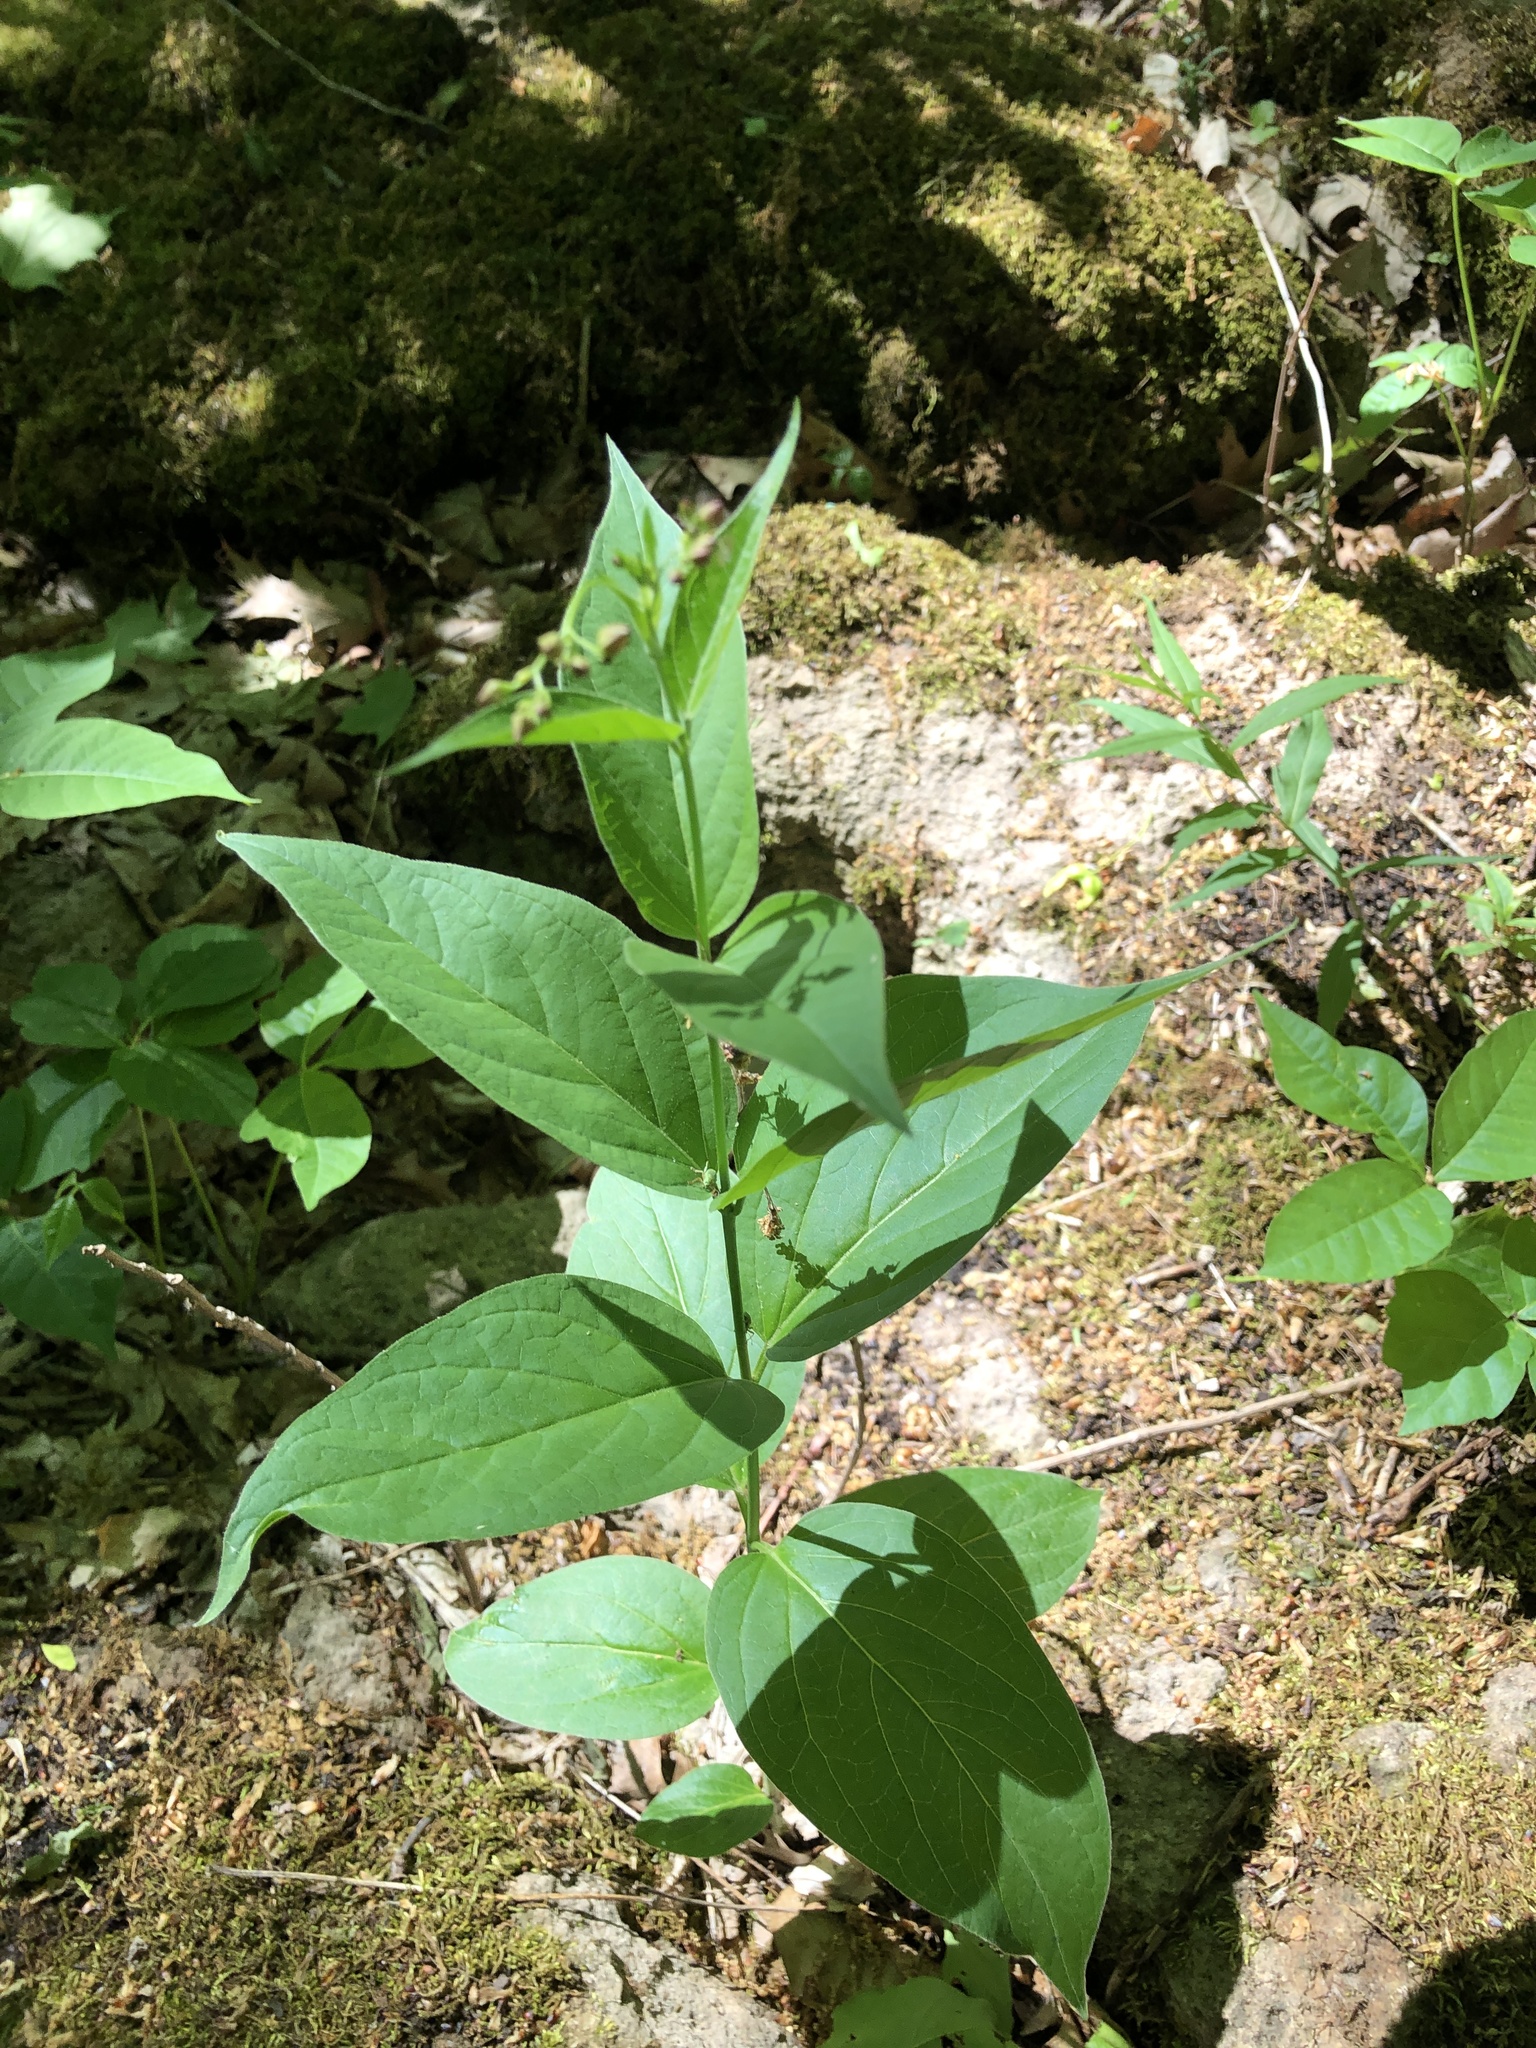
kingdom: Plantae
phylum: Tracheophyta
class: Magnoliopsida
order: Gentianales
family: Apocynaceae
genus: Vincetoxicum
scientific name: Vincetoxicum rossicum
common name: Dog-strangling vine
